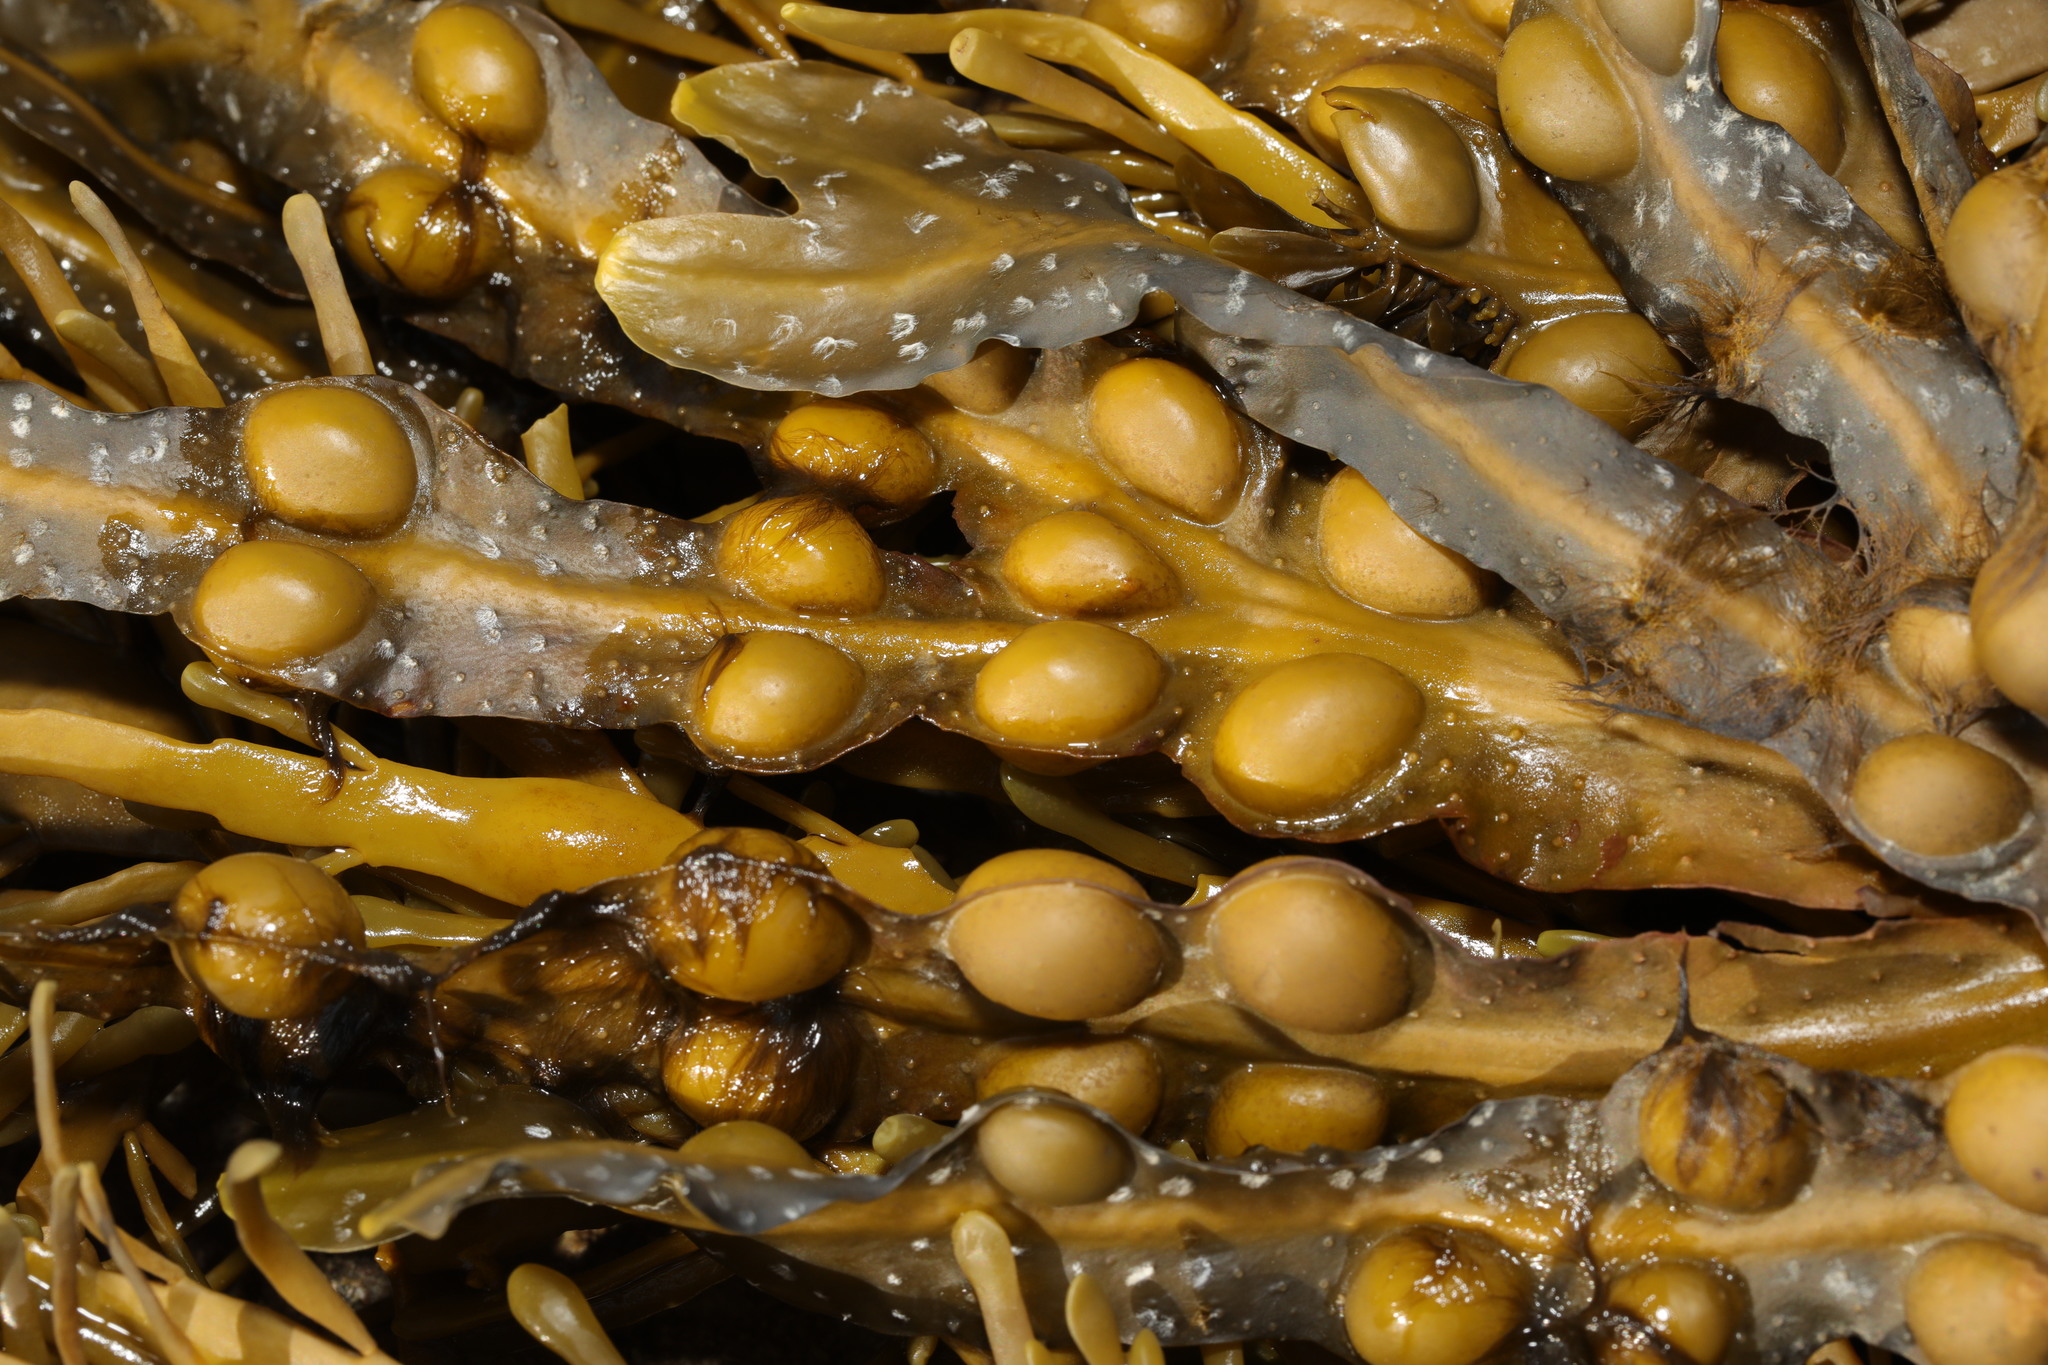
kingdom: Chromista
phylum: Ochrophyta
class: Phaeophyceae
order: Fucales
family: Fucaceae
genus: Fucus
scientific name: Fucus vesiculosus
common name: Bladder wrack
